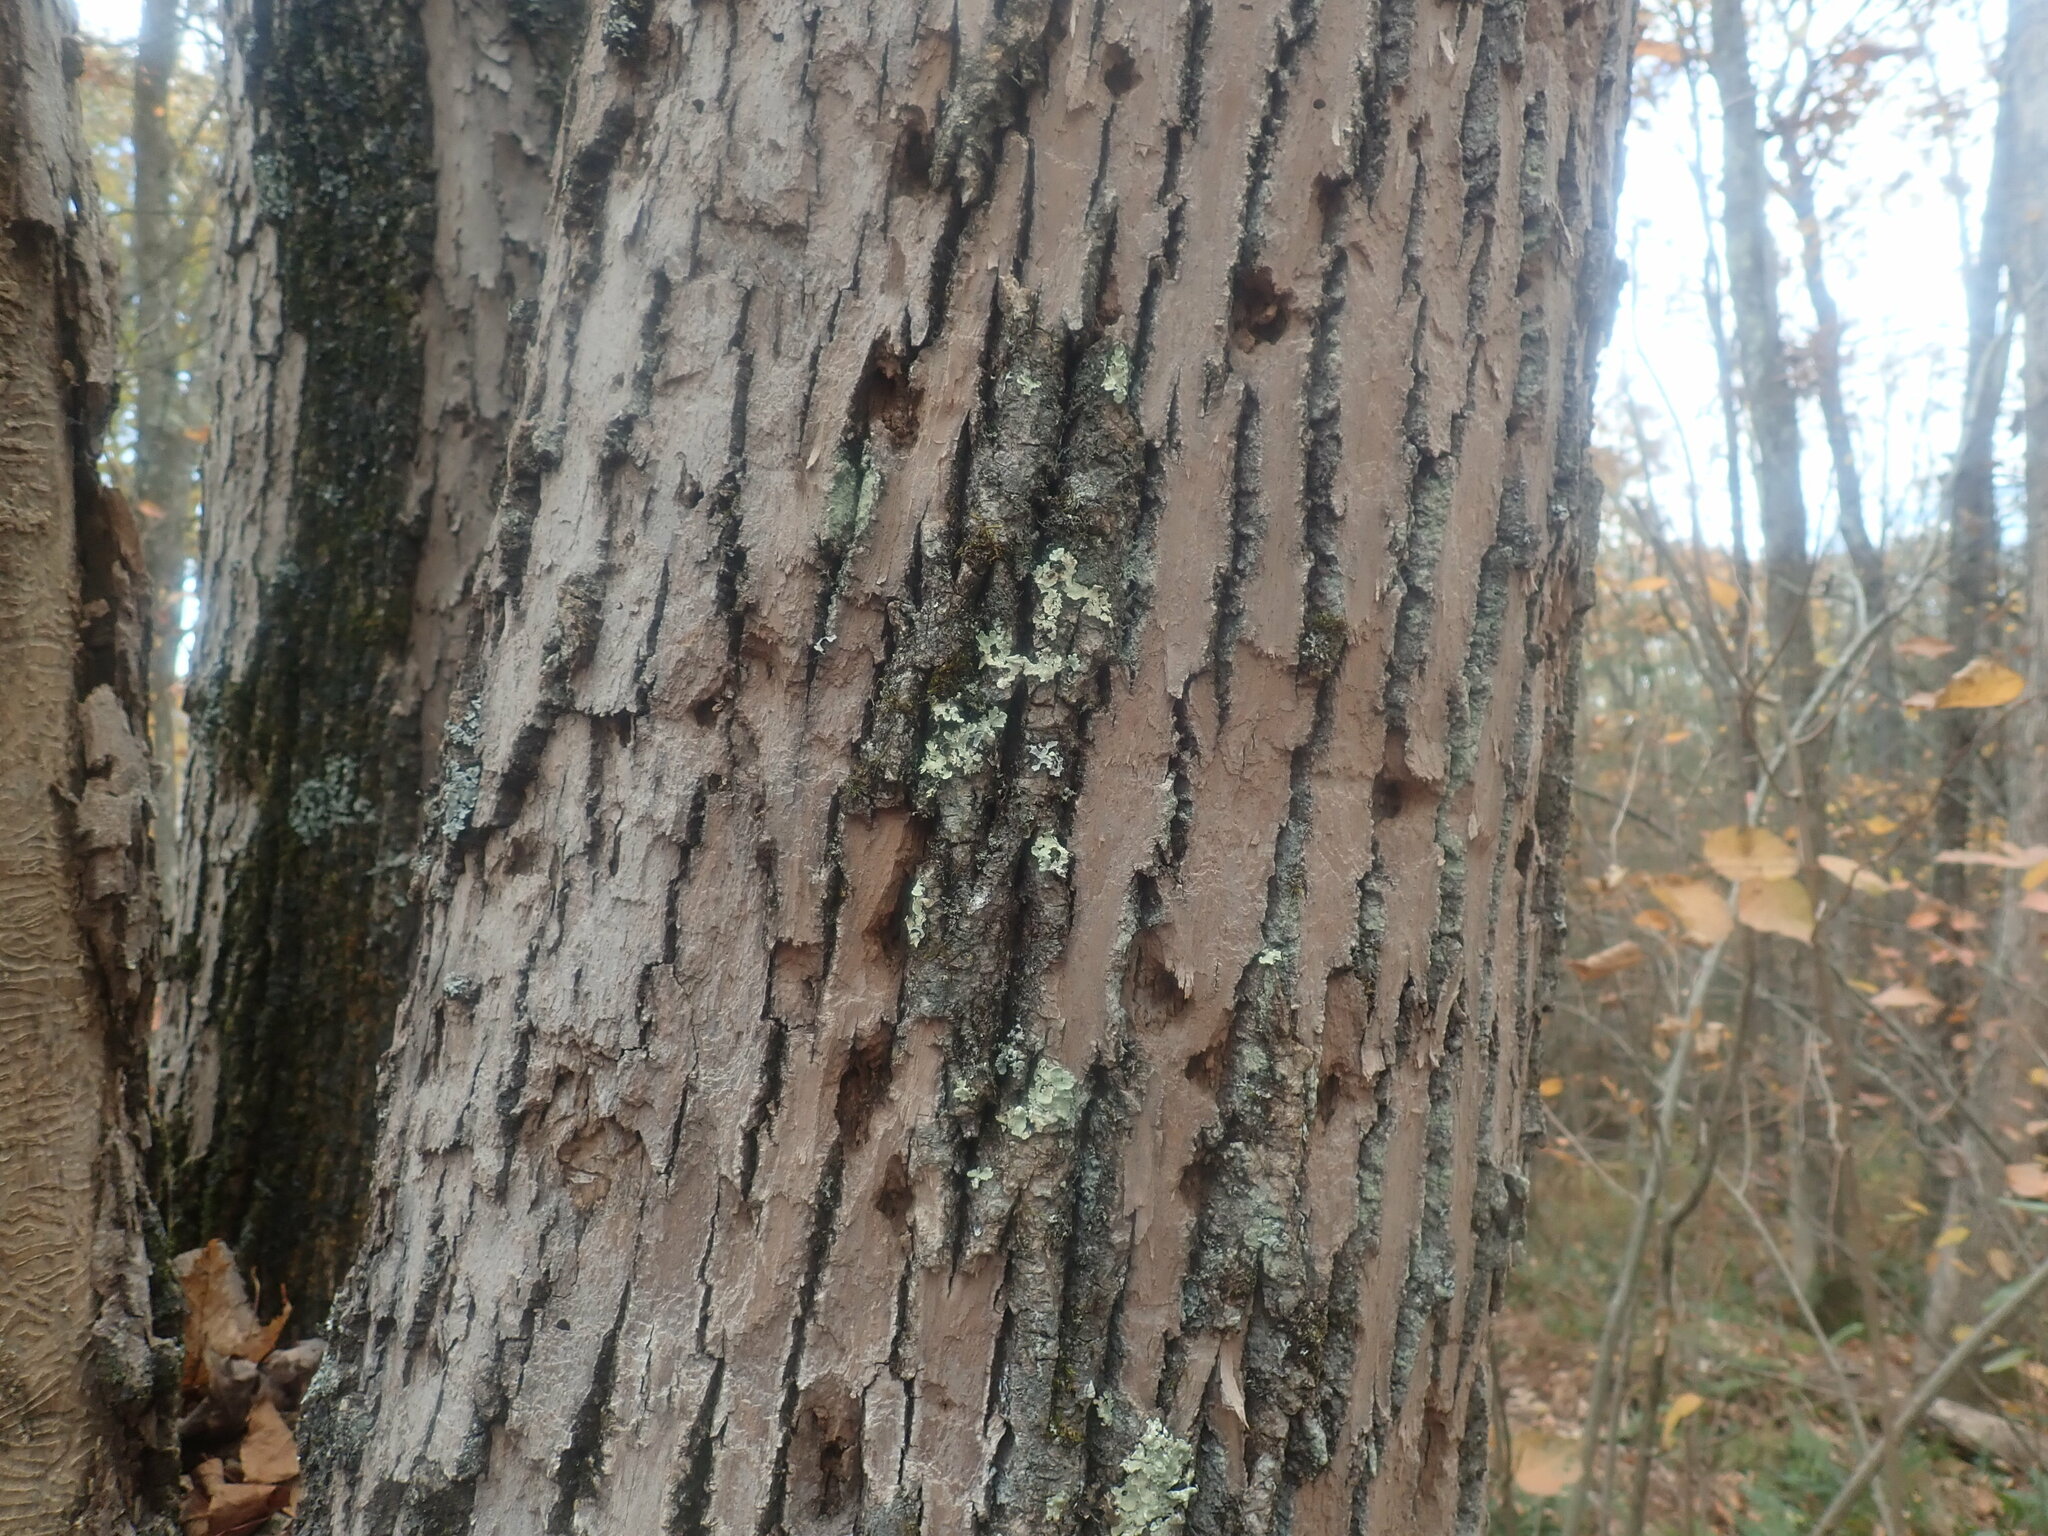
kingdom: Animalia
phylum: Arthropoda
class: Insecta
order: Coleoptera
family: Buprestidae
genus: Agrilus
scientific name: Agrilus planipennis
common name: Emerald ash borer
